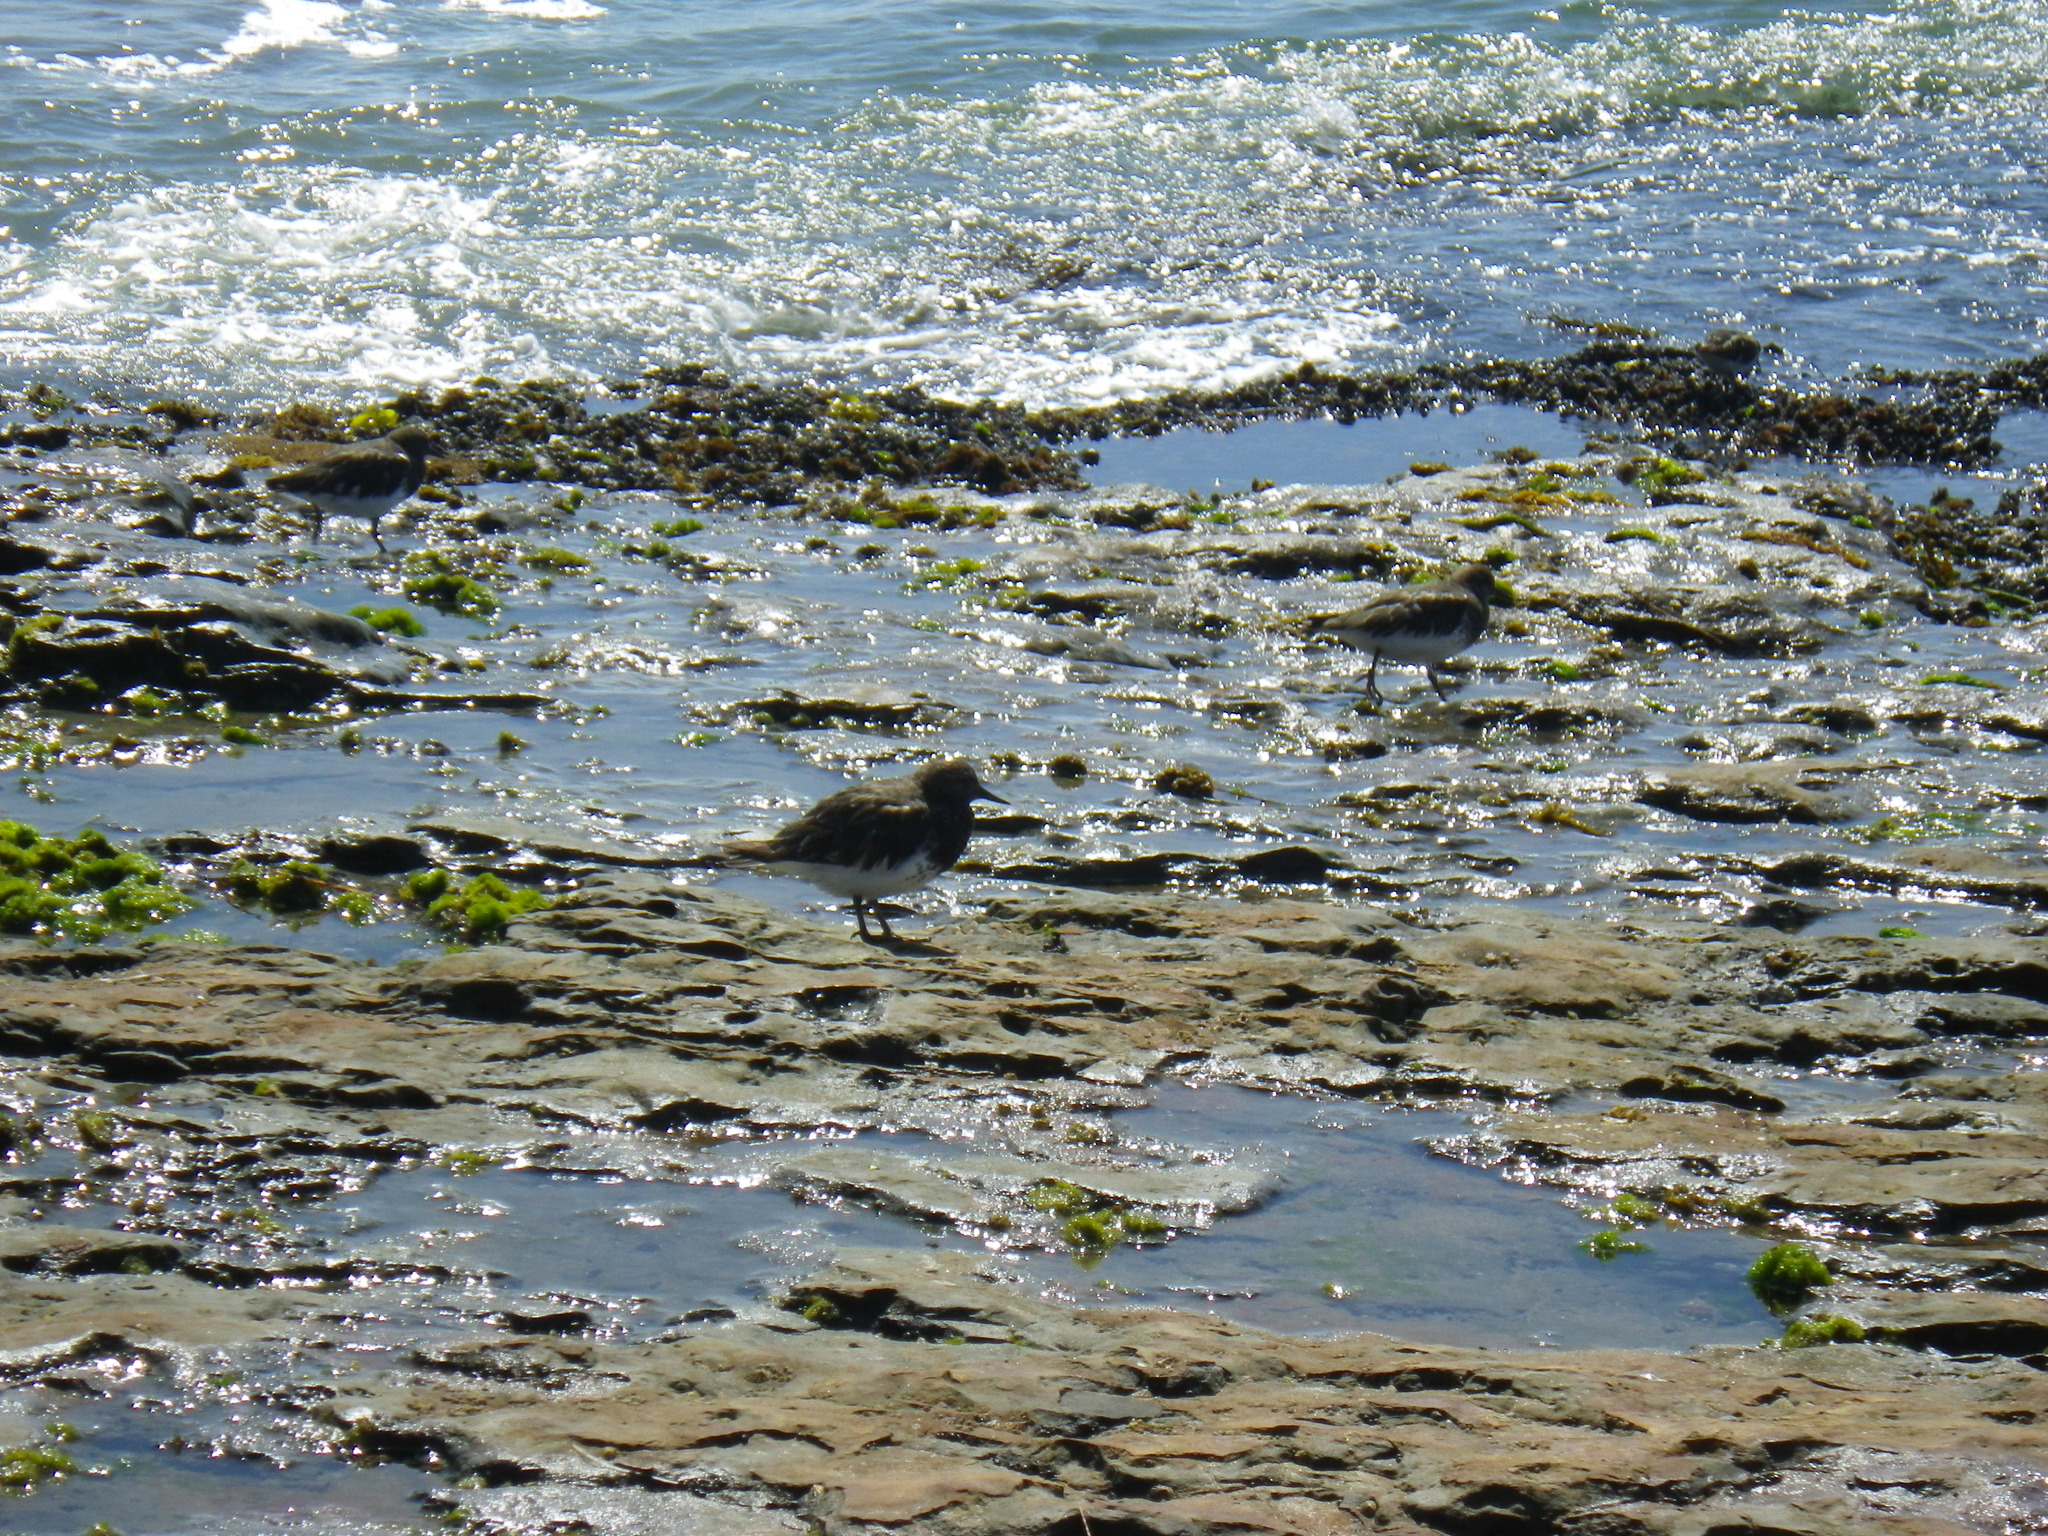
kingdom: Animalia
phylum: Chordata
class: Aves
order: Charadriiformes
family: Scolopacidae
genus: Arenaria
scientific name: Arenaria melanocephala
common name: Black turnstone
